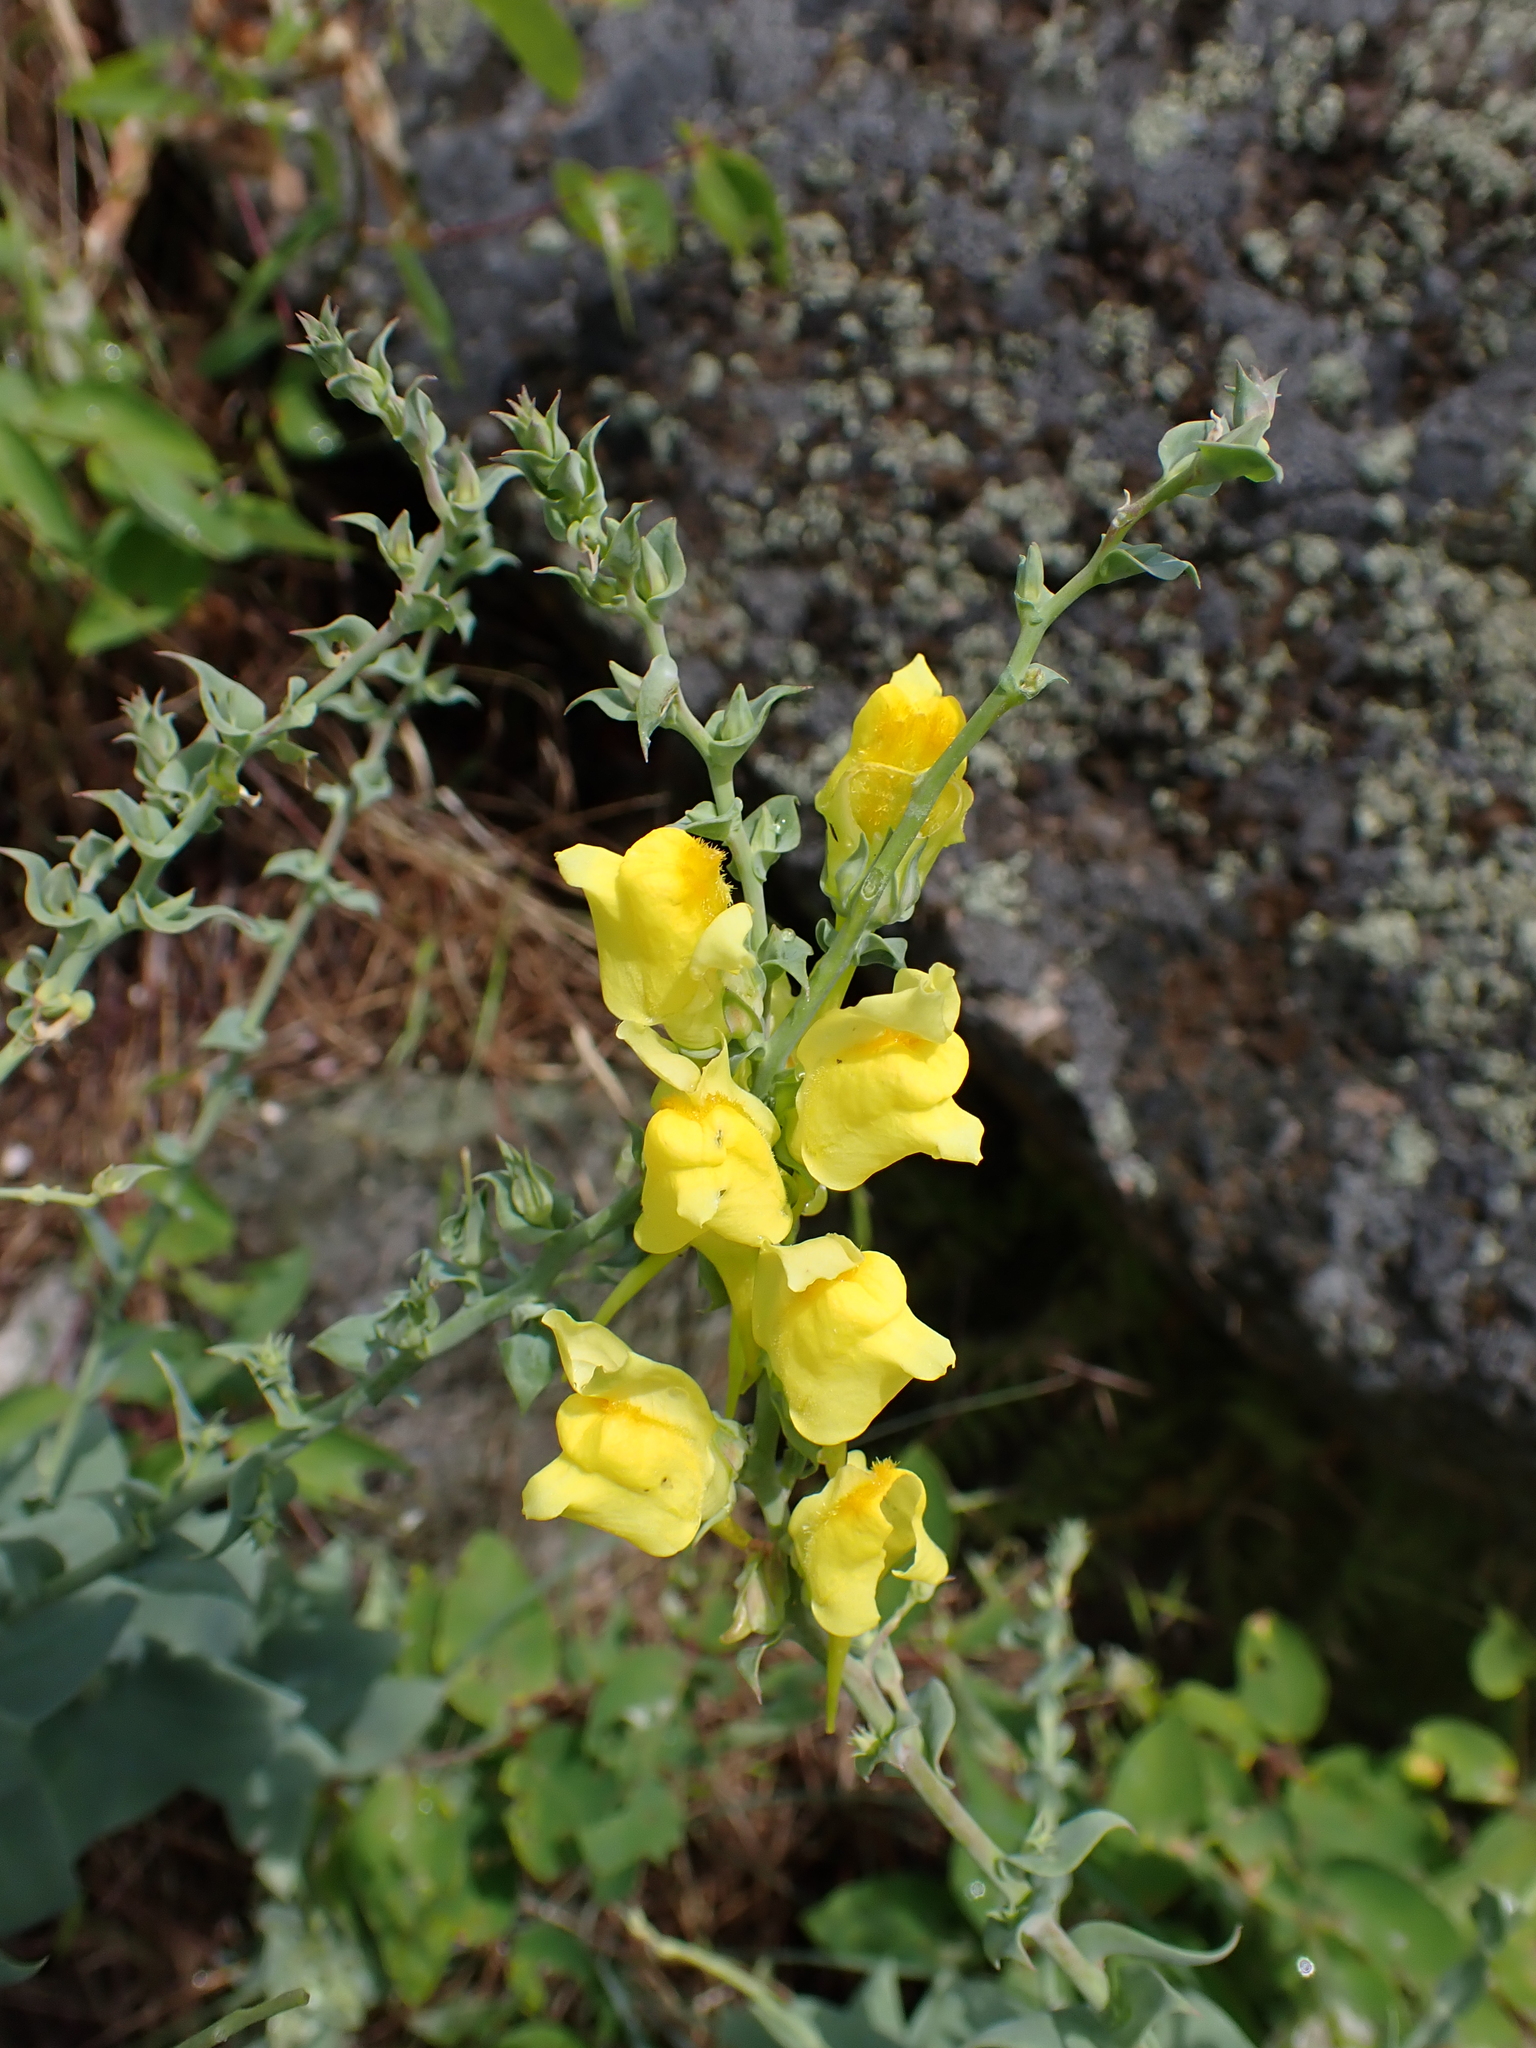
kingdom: Plantae
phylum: Tracheophyta
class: Magnoliopsida
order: Lamiales
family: Plantaginaceae
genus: Linaria
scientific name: Linaria dalmatica
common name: Dalmatian toadflax
